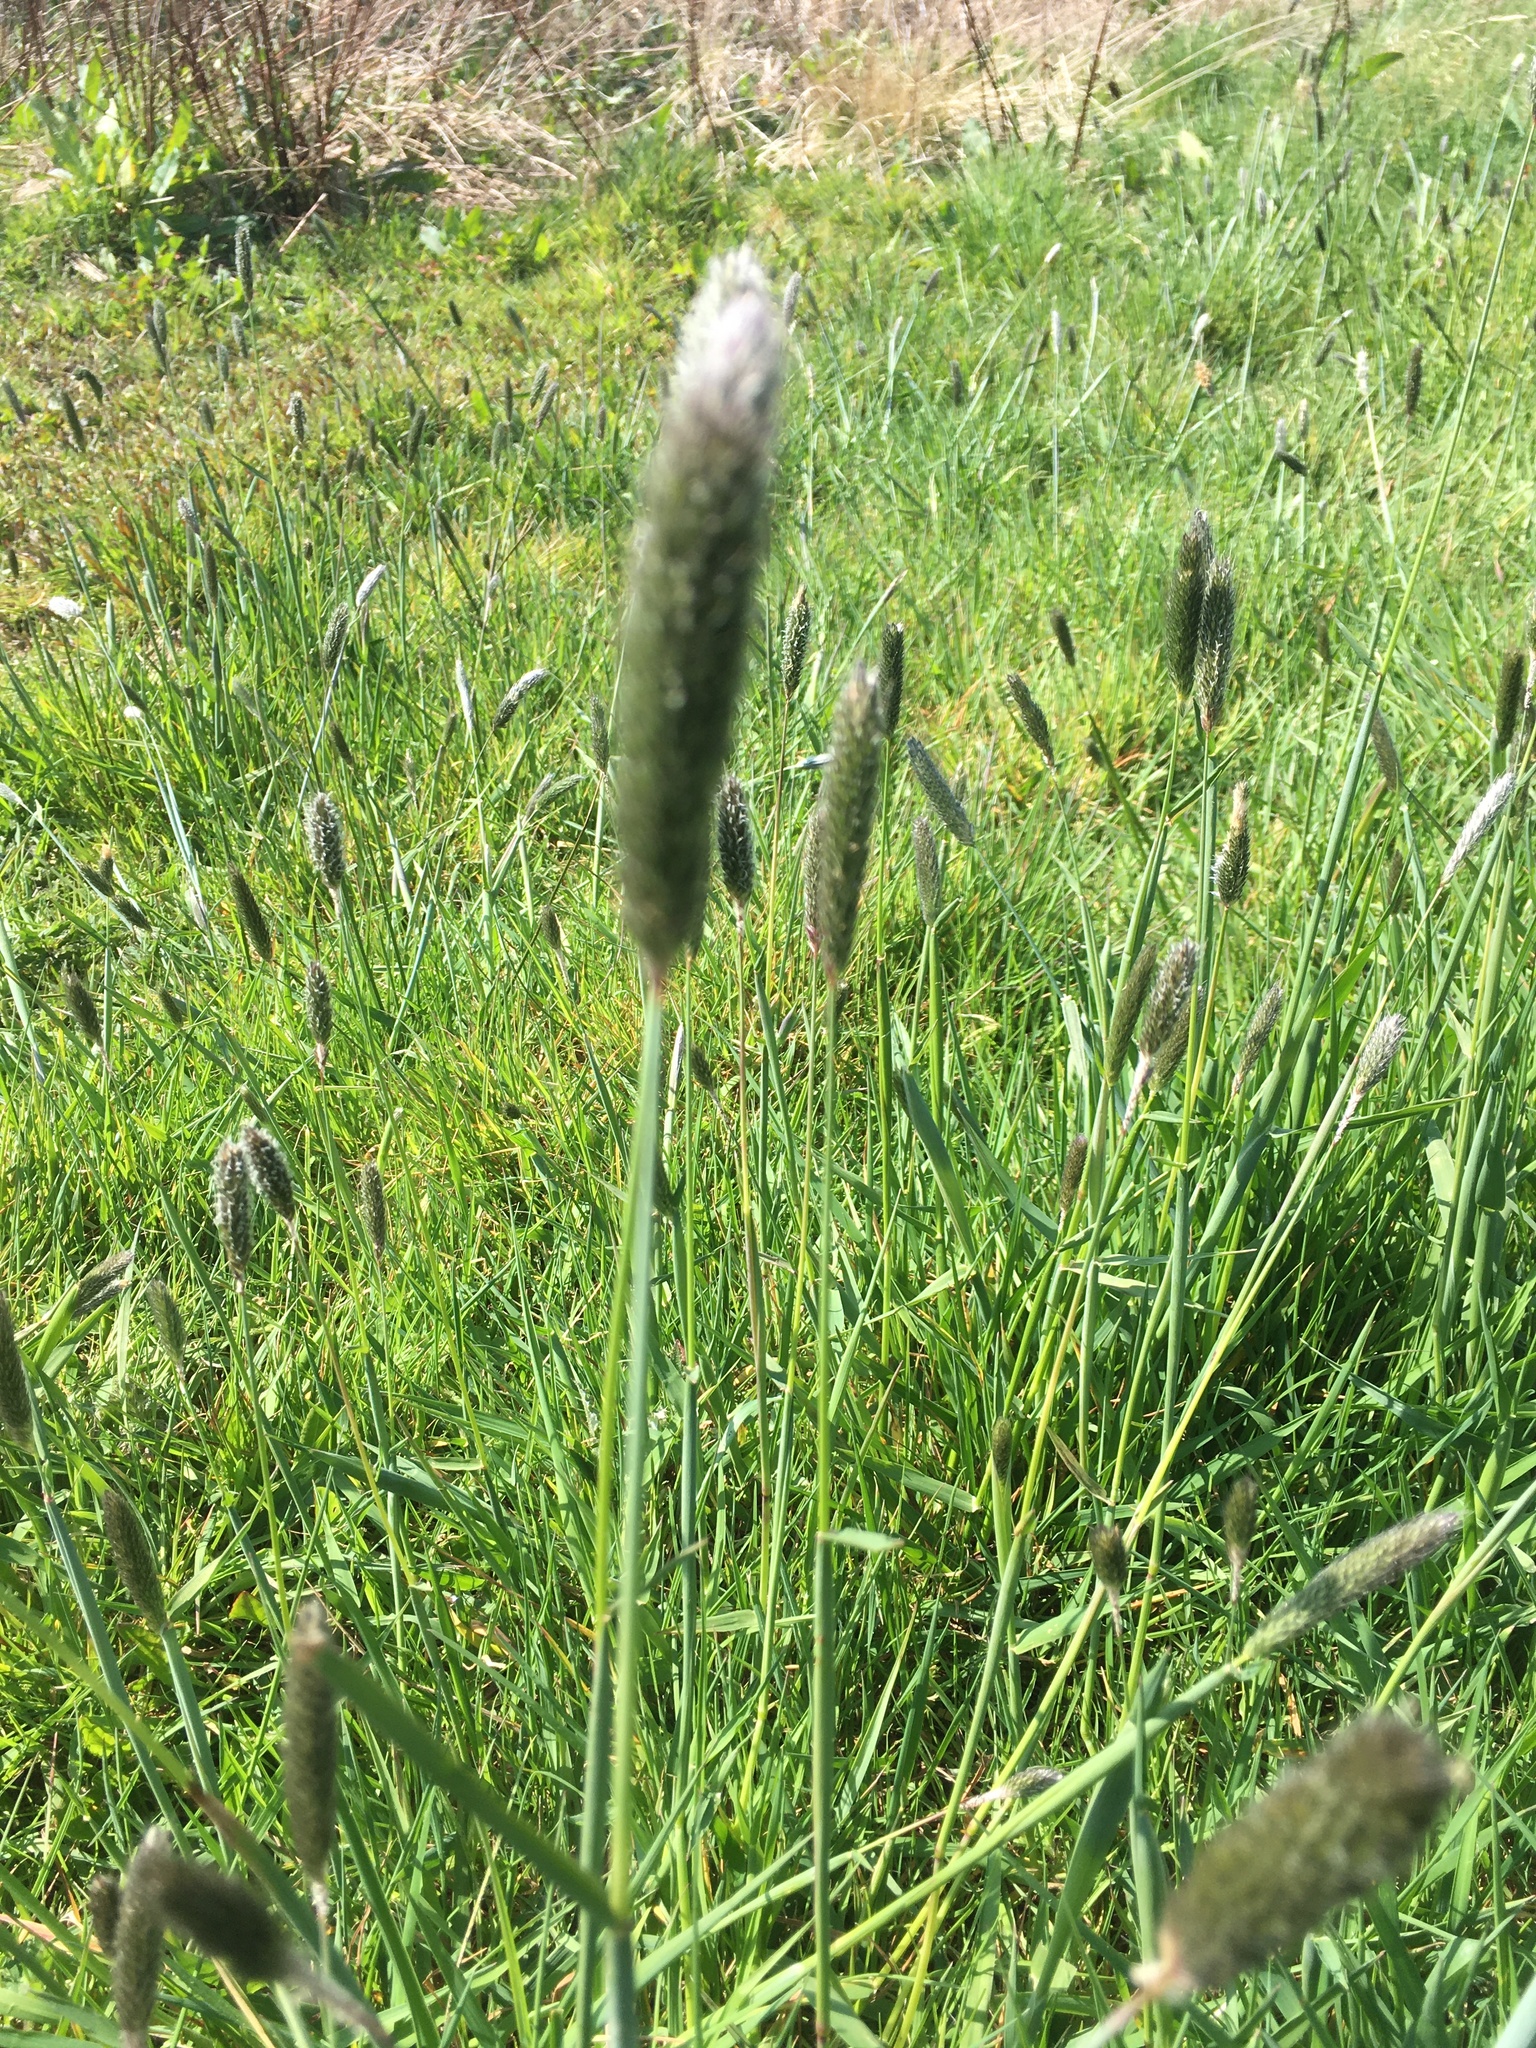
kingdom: Plantae
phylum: Tracheophyta
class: Liliopsida
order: Poales
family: Poaceae
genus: Alopecurus
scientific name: Alopecurus pratensis
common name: Meadow foxtail
